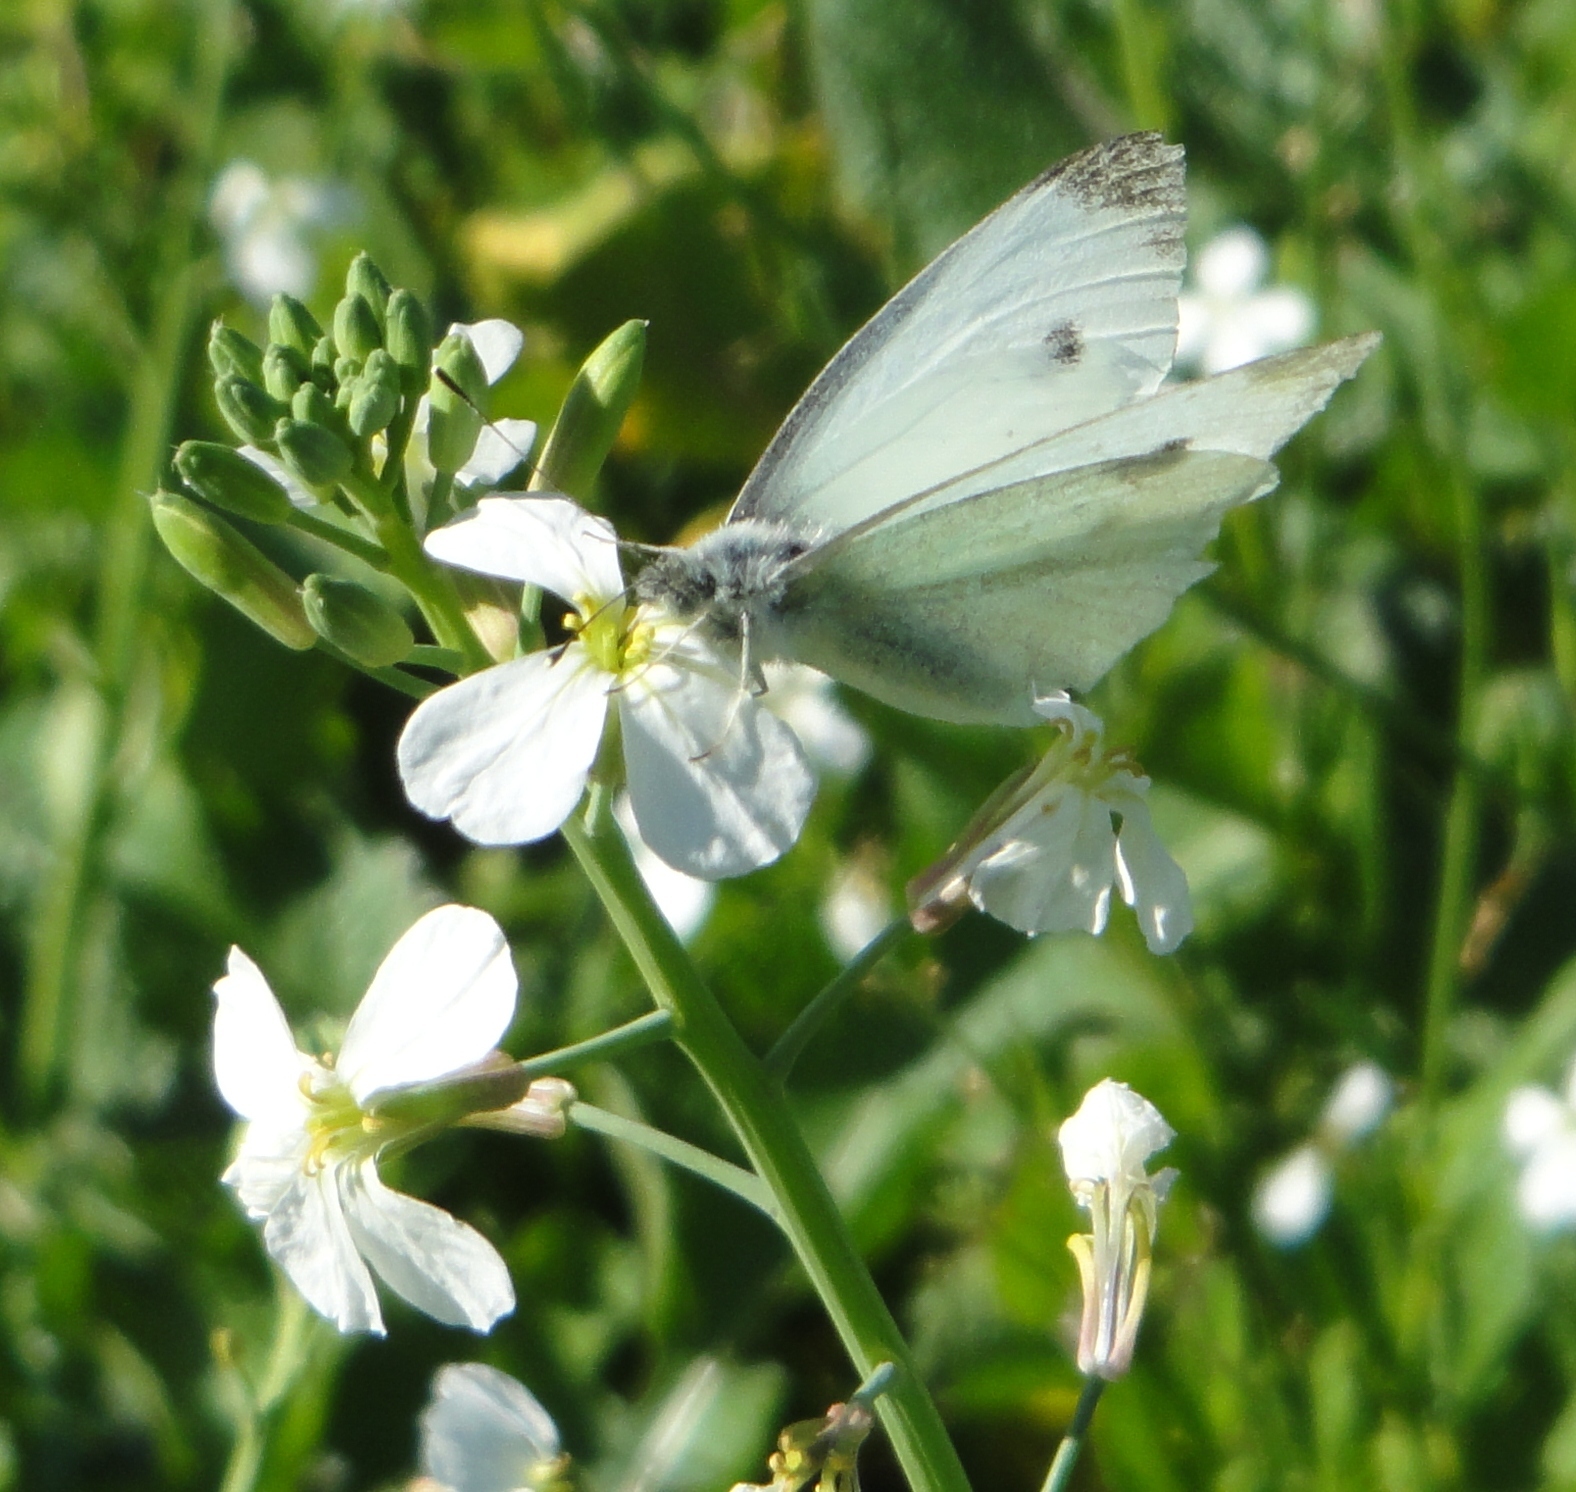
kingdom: Animalia
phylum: Arthropoda
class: Insecta
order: Lepidoptera
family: Pieridae
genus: Pieris
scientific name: Pieris rapae
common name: Small white
